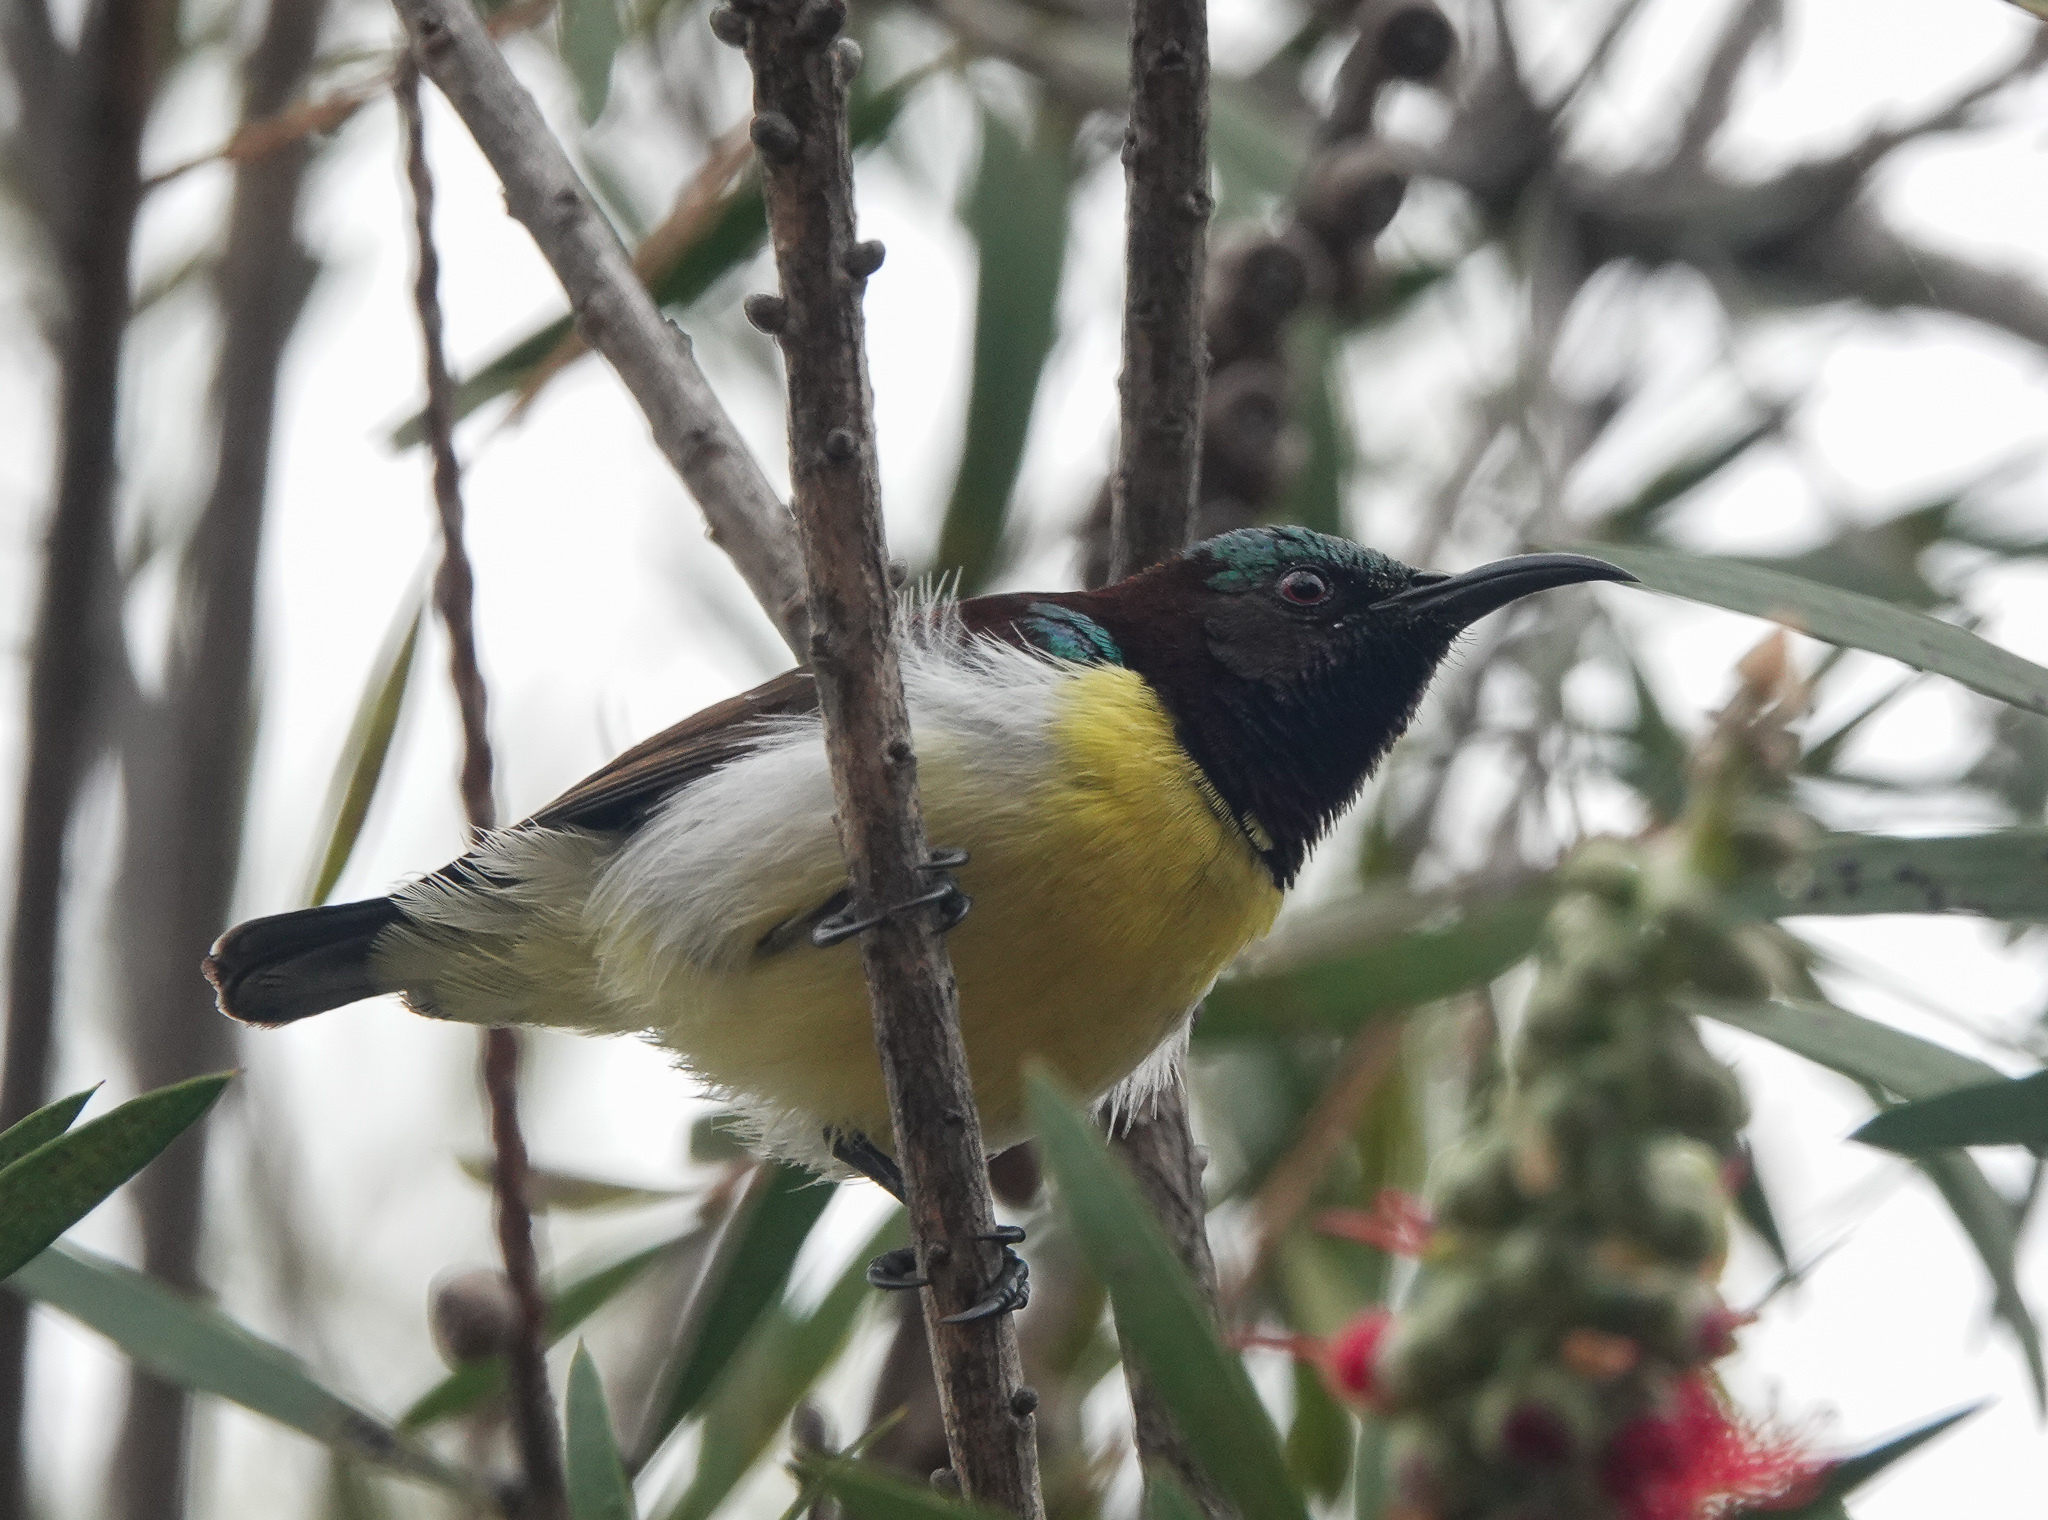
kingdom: Animalia
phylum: Chordata
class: Aves
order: Passeriformes
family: Nectariniidae
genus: Leptocoma
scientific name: Leptocoma zeylonica
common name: Purple-rumped sunbird
